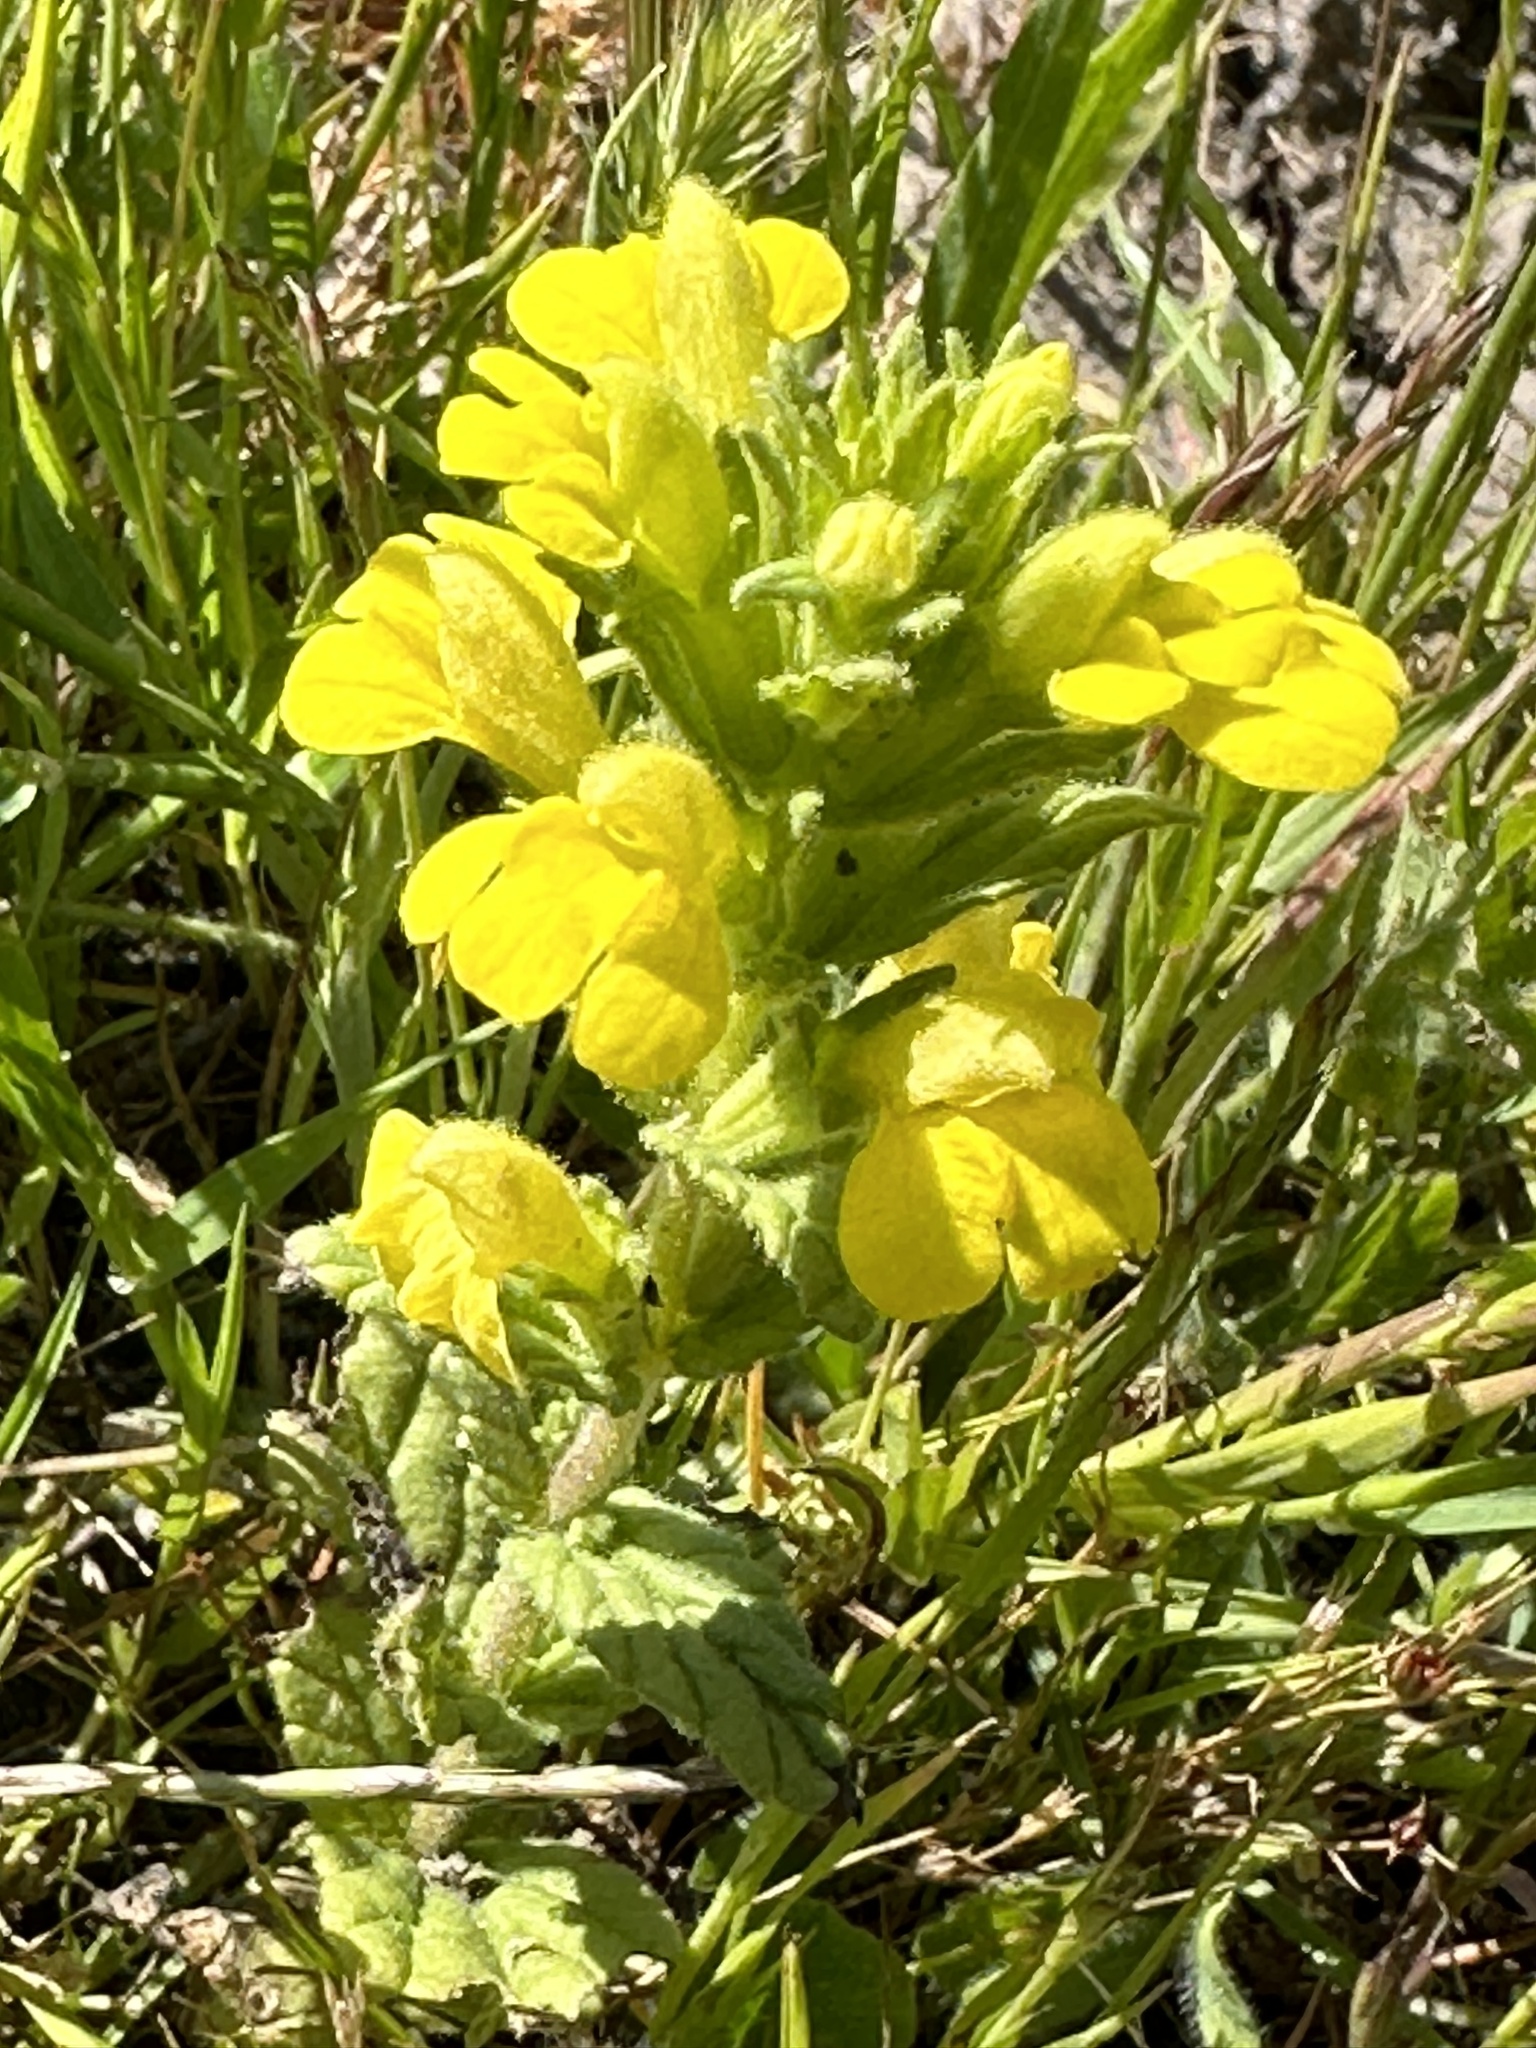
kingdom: Plantae
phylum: Tracheophyta
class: Magnoliopsida
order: Lamiales
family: Orobanchaceae
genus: Bellardia
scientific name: Bellardia viscosa
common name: Sticky parentucellia
